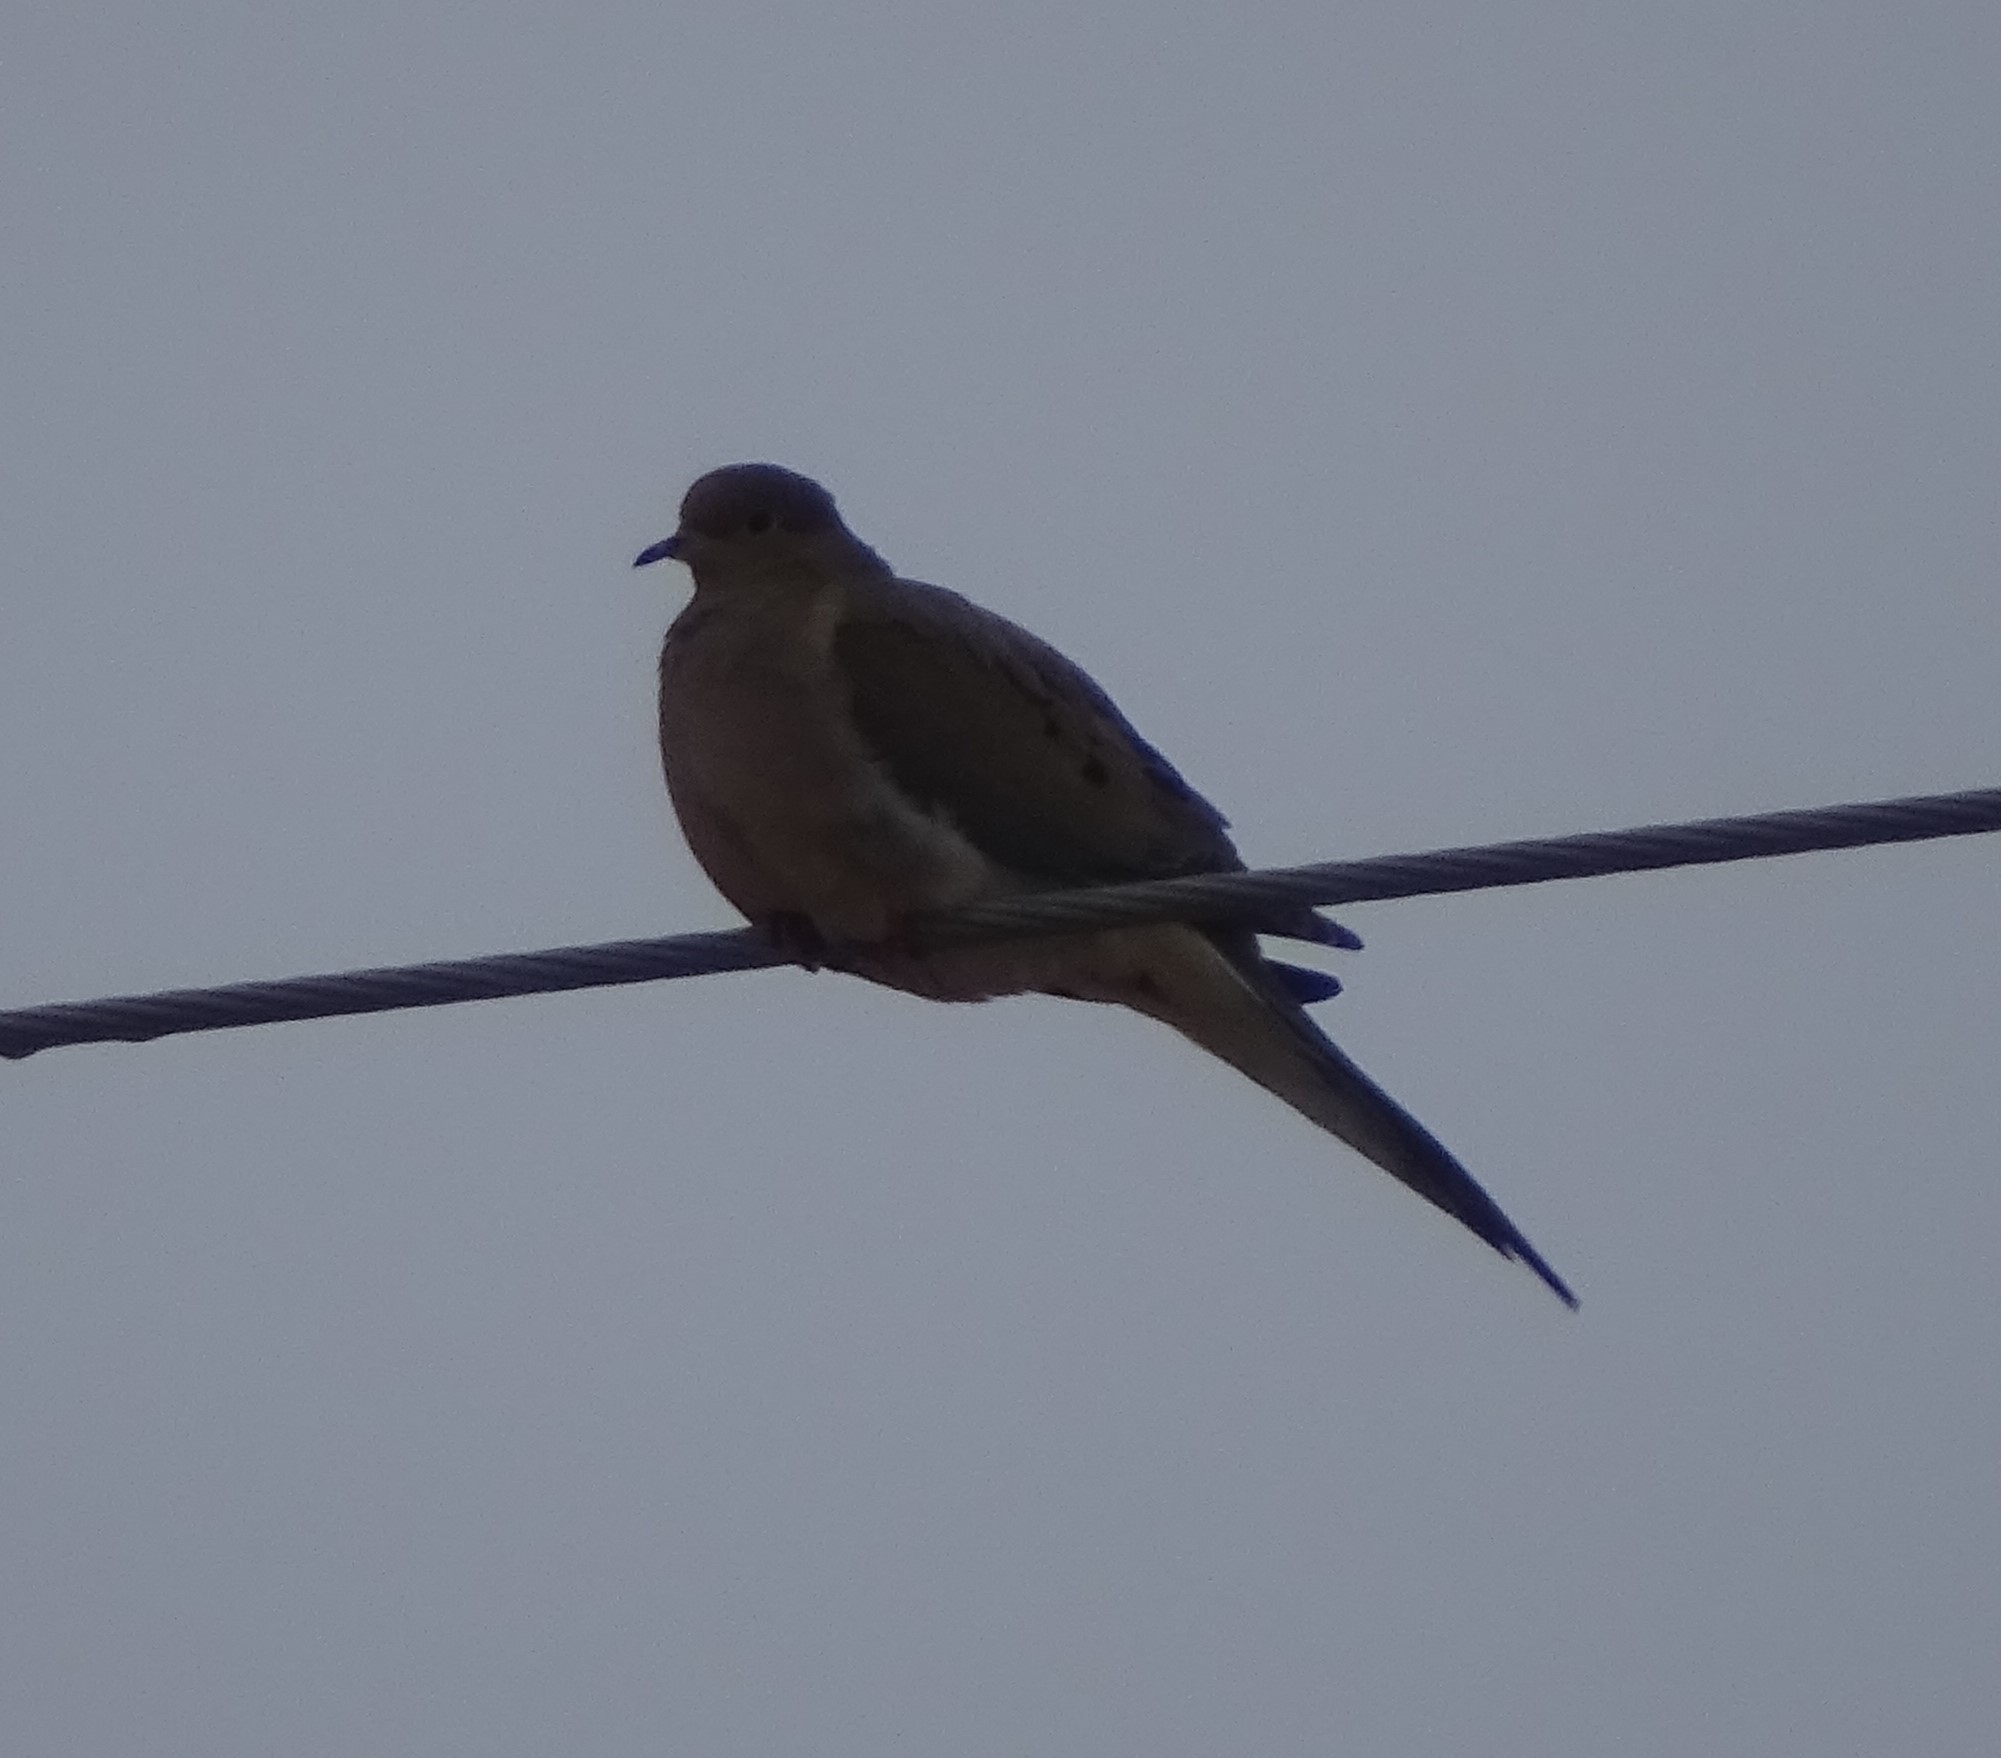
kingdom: Animalia
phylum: Chordata
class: Aves
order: Columbiformes
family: Columbidae
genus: Zenaida
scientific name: Zenaida macroura
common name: Mourning dove
